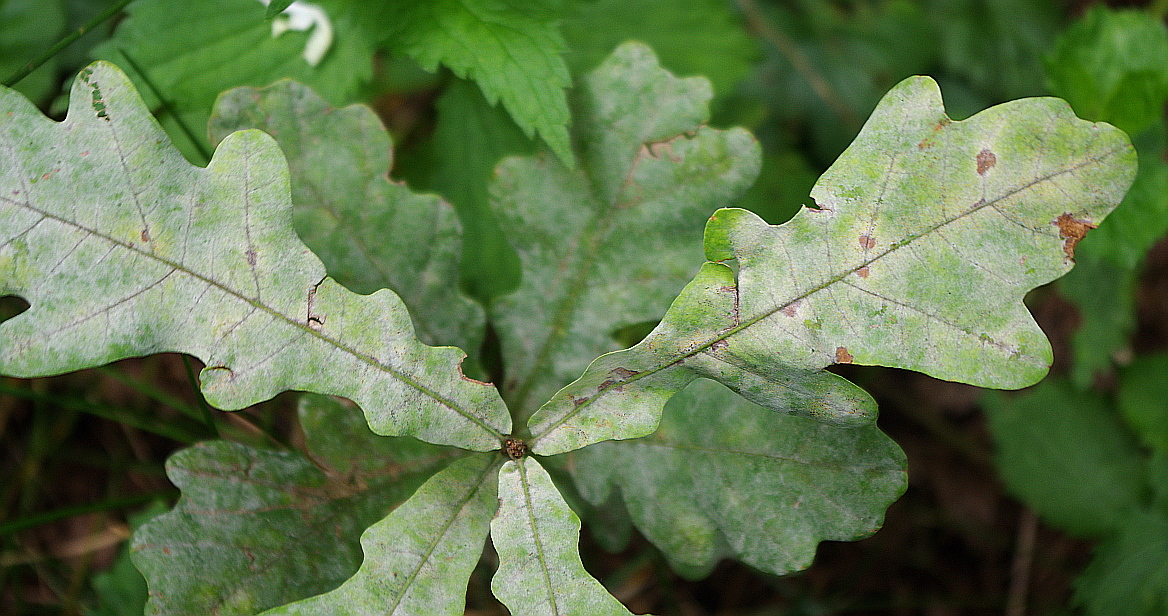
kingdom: Fungi
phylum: Ascomycota
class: Leotiomycetes
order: Helotiales
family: Erysiphaceae
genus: Erysiphe
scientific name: Erysiphe alphitoides
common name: Oak mildew
